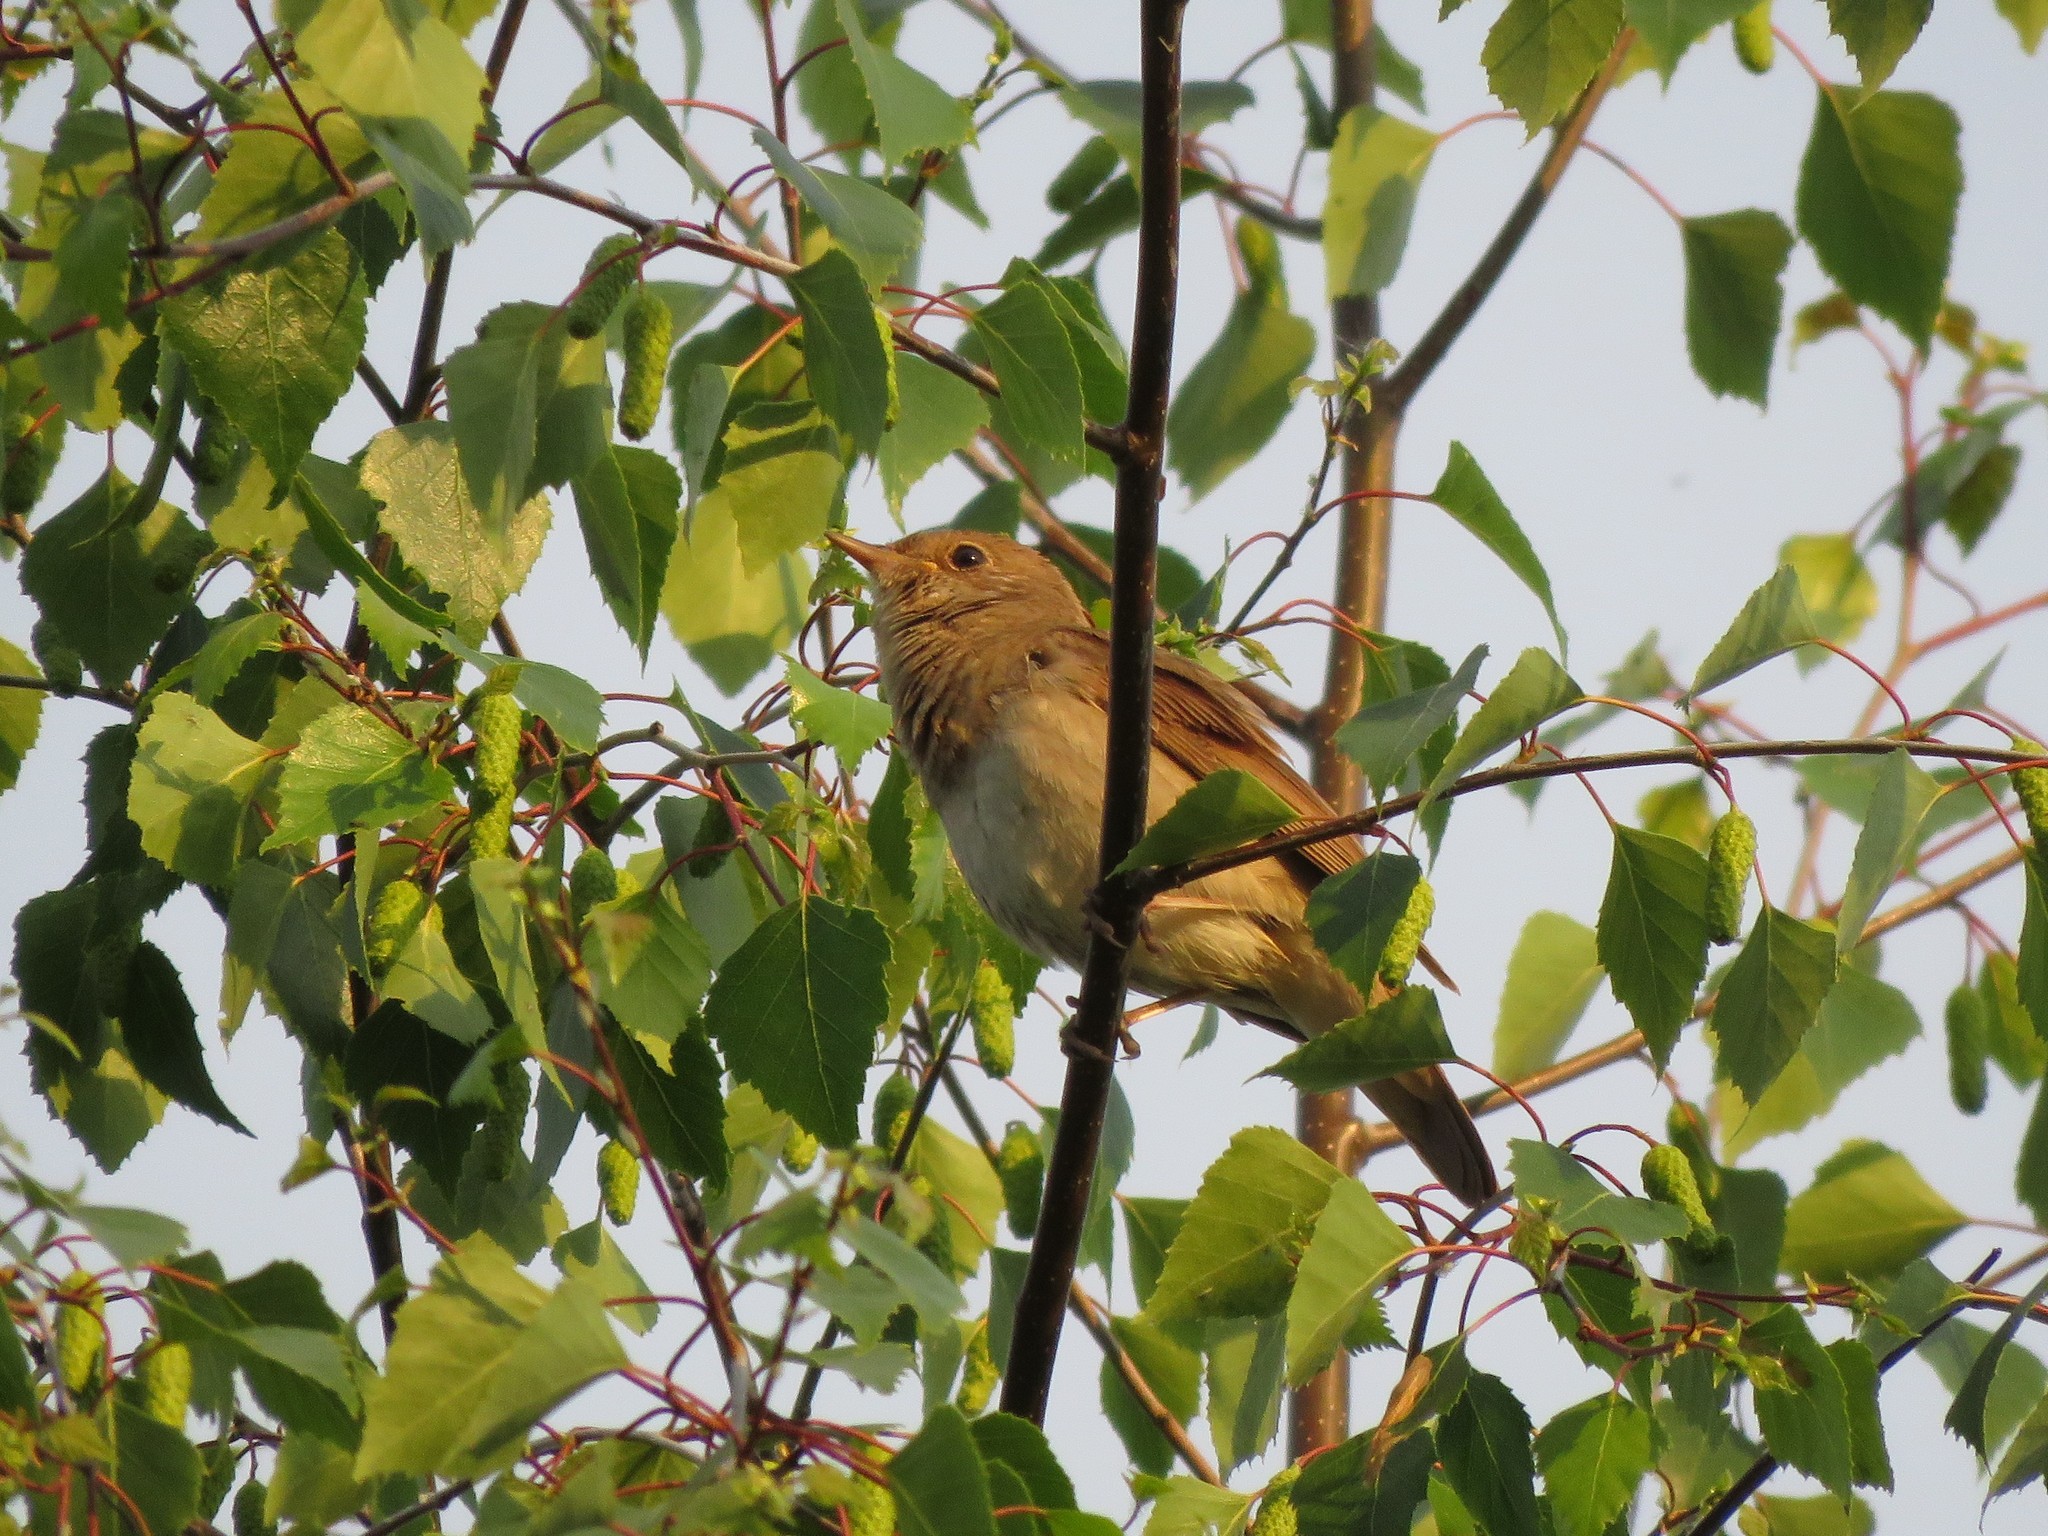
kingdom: Animalia
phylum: Chordata
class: Aves
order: Passeriformes
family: Muscicapidae
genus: Luscinia
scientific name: Luscinia luscinia
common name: Thrush nightingale
